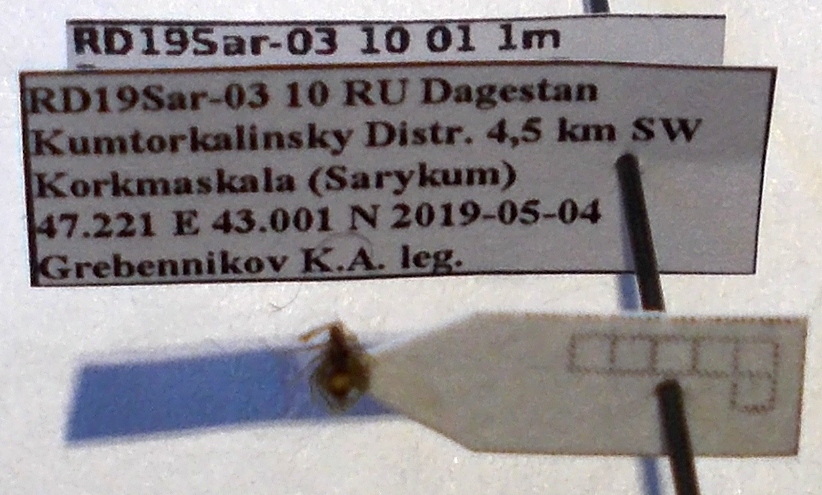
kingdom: Animalia
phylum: Arthropoda
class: Insecta
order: Hemiptera
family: Tingidae
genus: Derephysia
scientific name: Derephysia cristata
